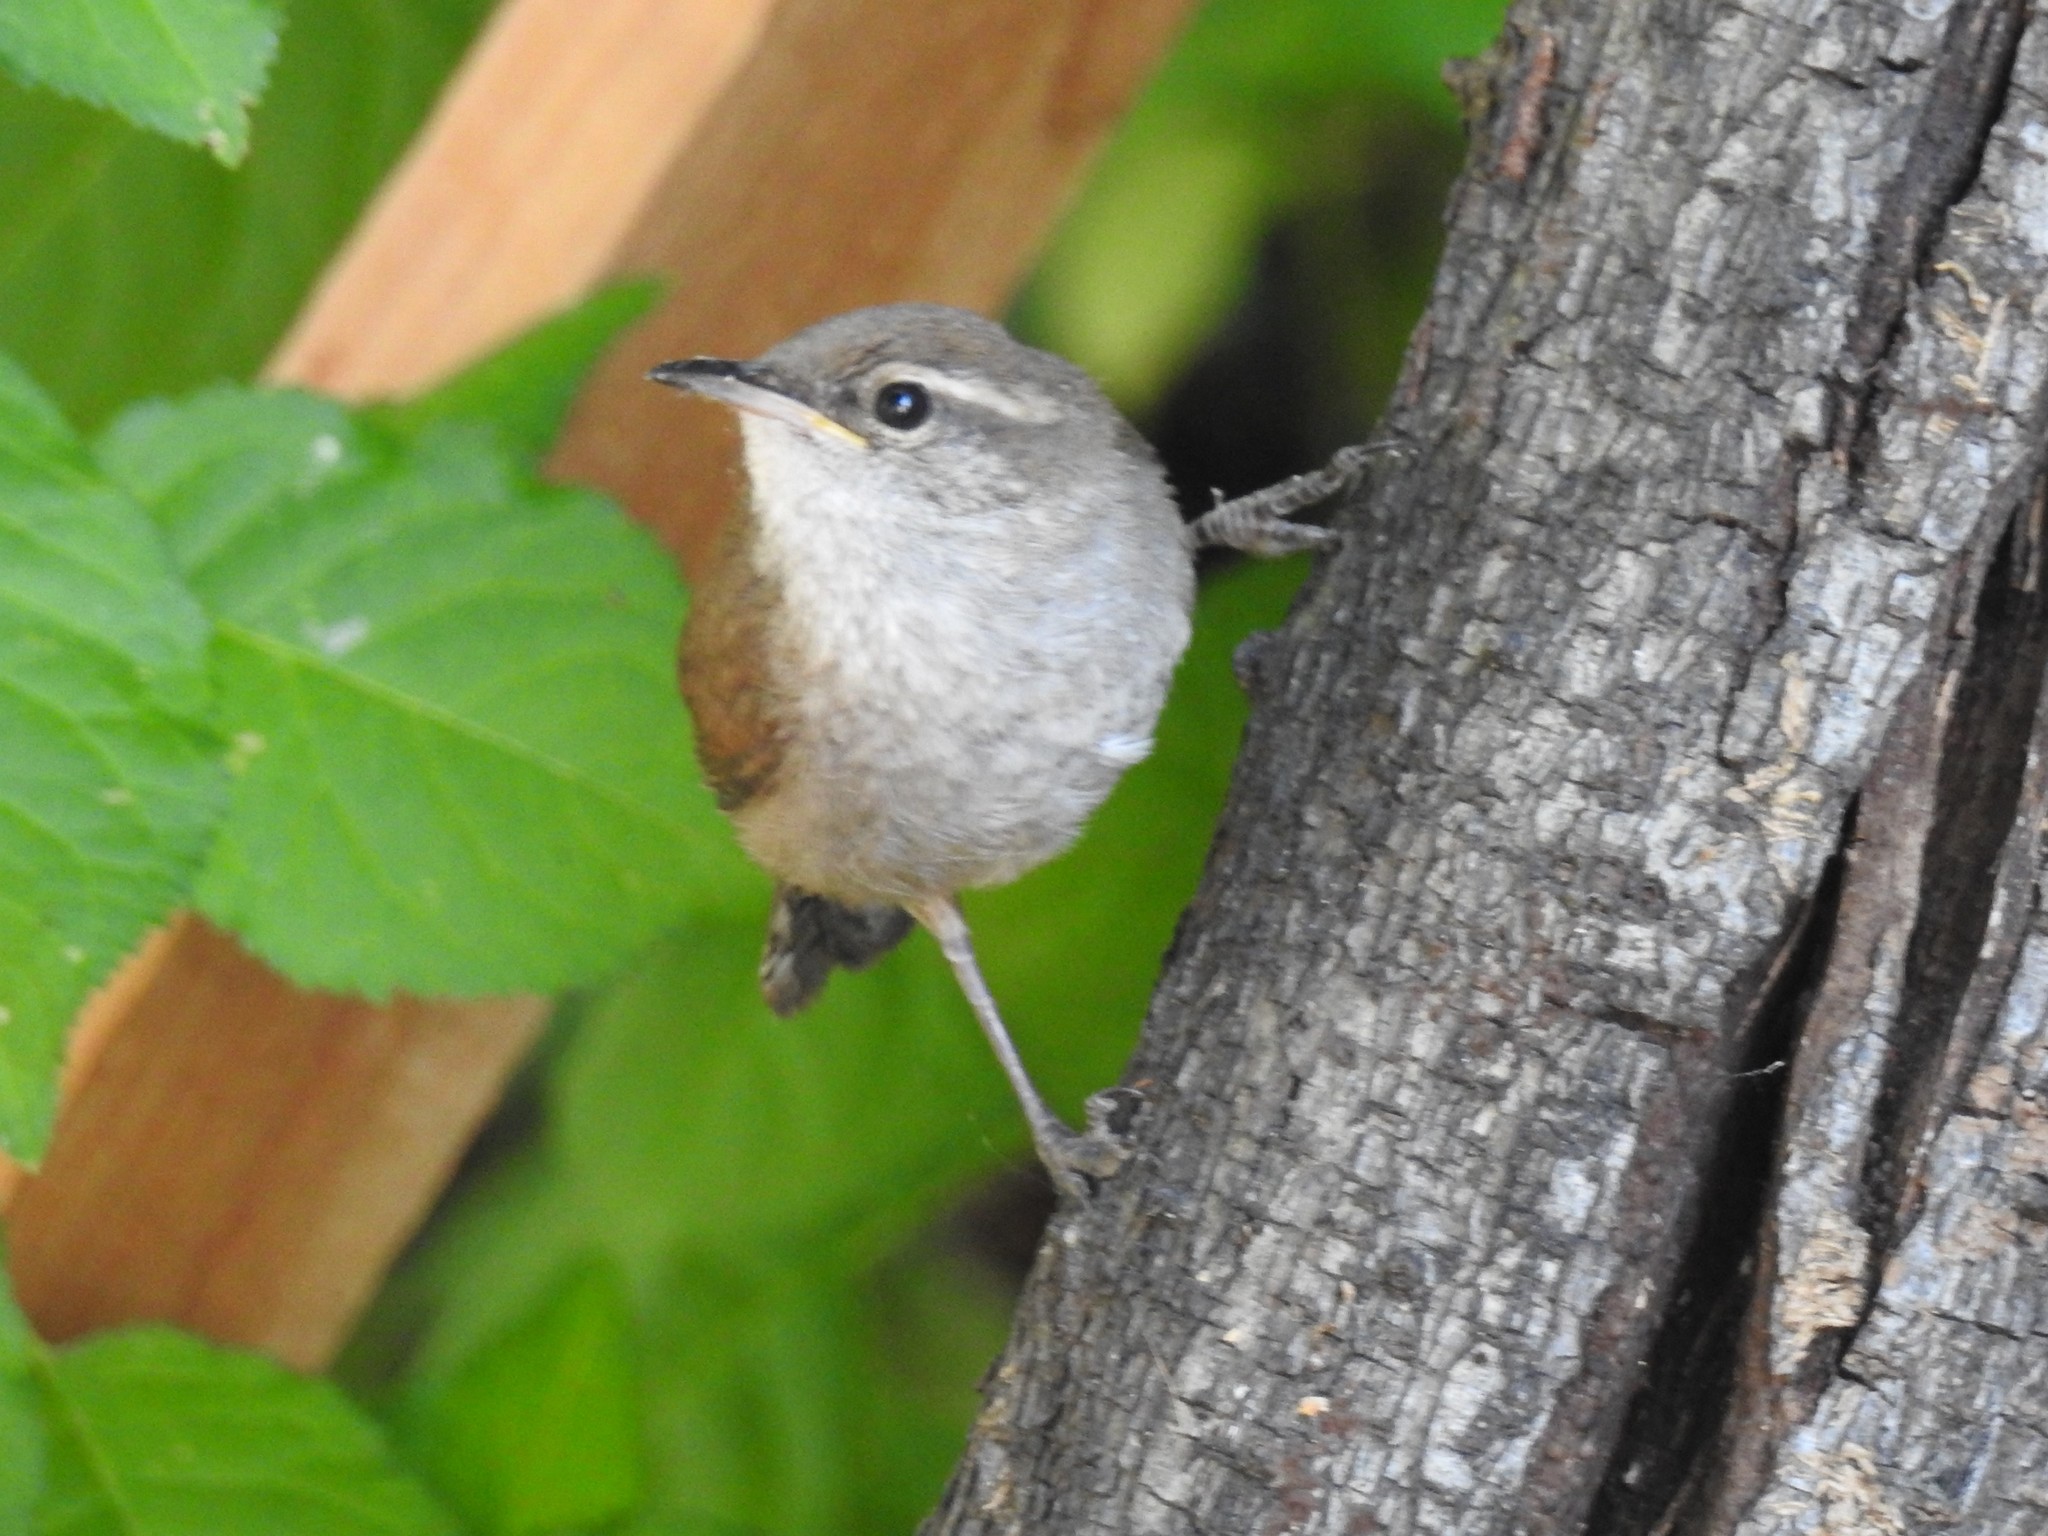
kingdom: Animalia
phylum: Chordata
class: Aves
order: Passeriformes
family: Troglodytidae
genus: Thryomanes
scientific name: Thryomanes bewickii
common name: Bewick's wren
